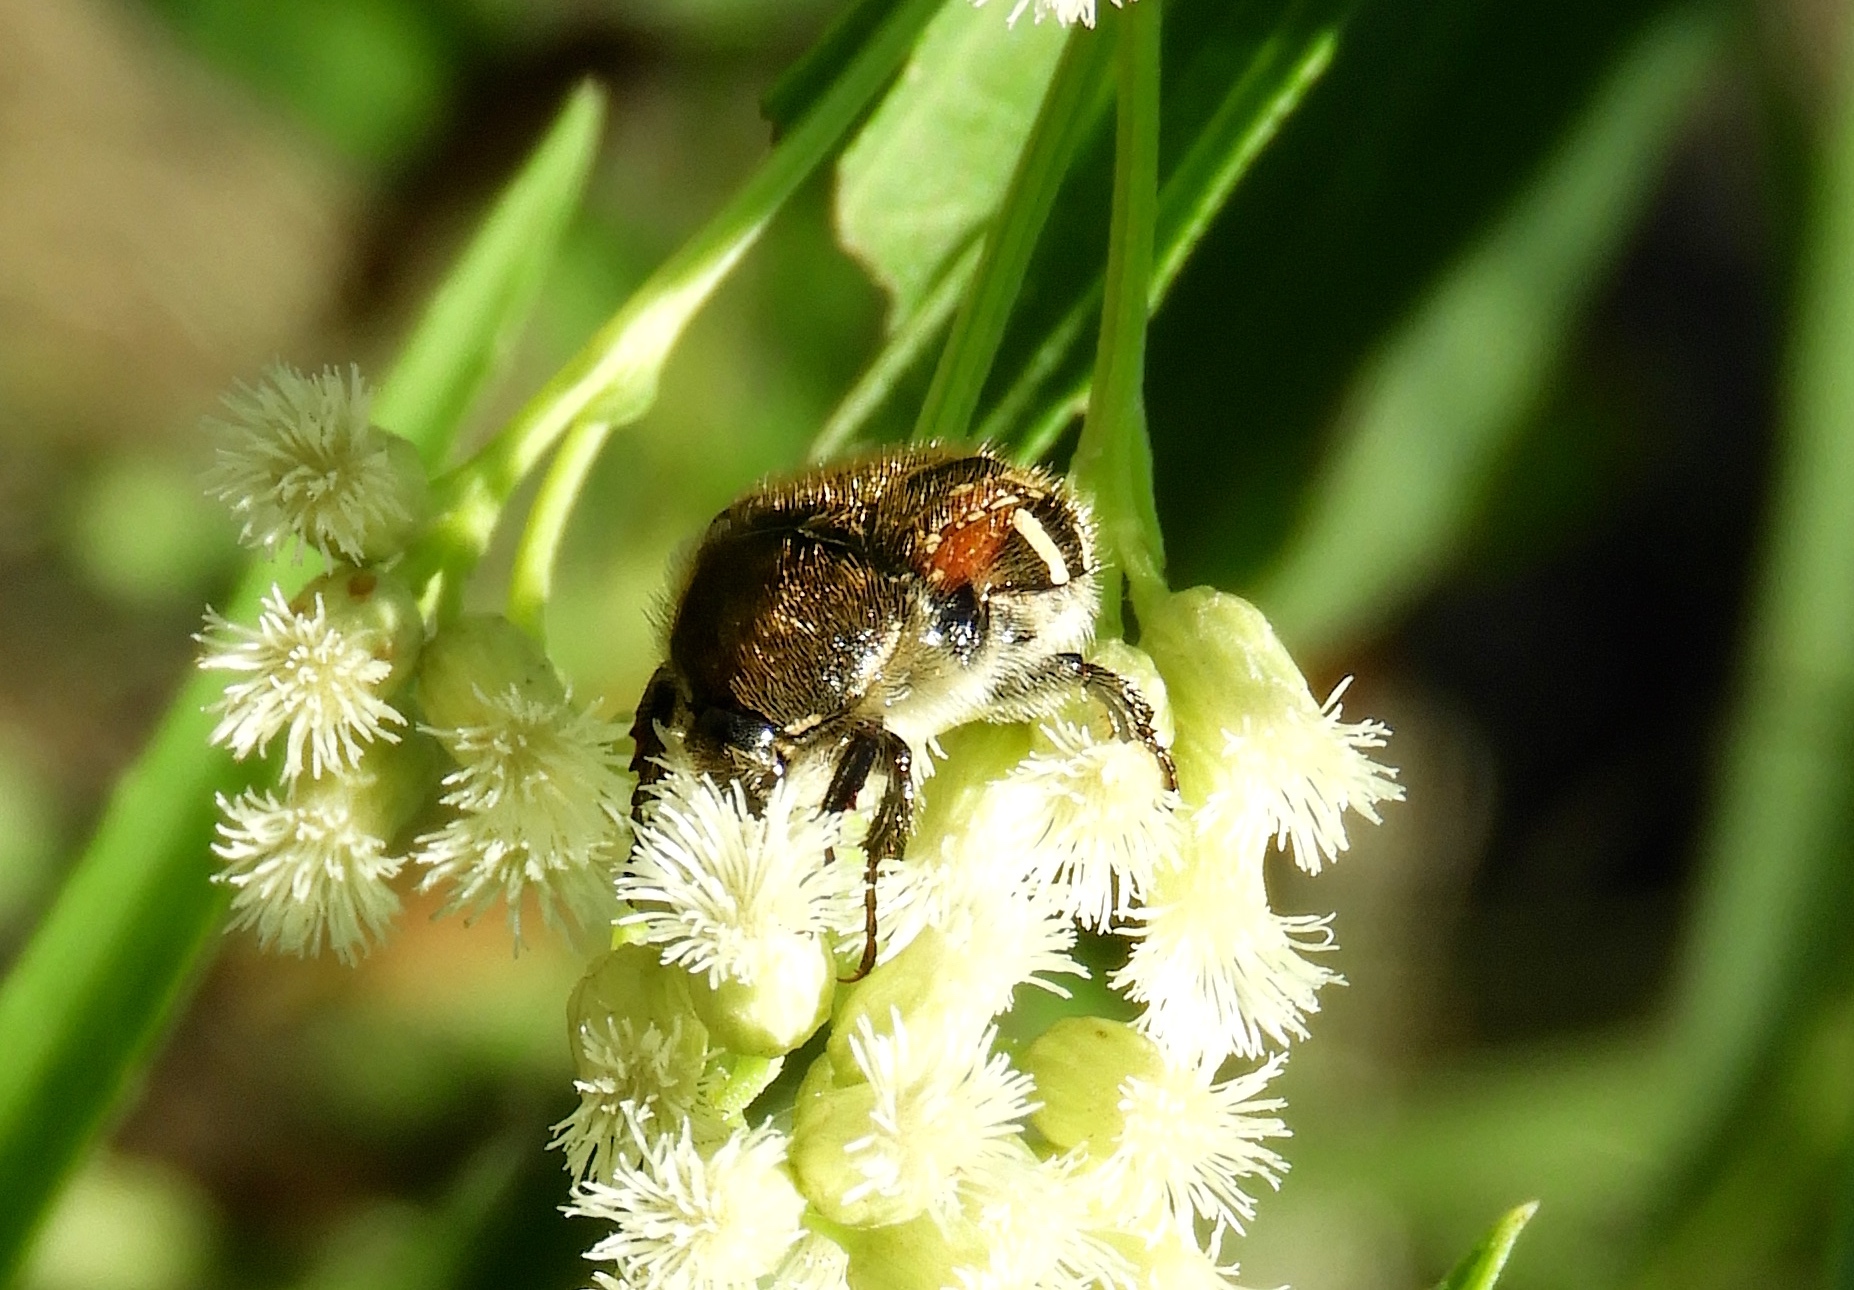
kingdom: Animalia
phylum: Arthropoda
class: Insecta
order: Coleoptera
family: Scarabaeidae
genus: Euphoria
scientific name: Euphoria pulchella
